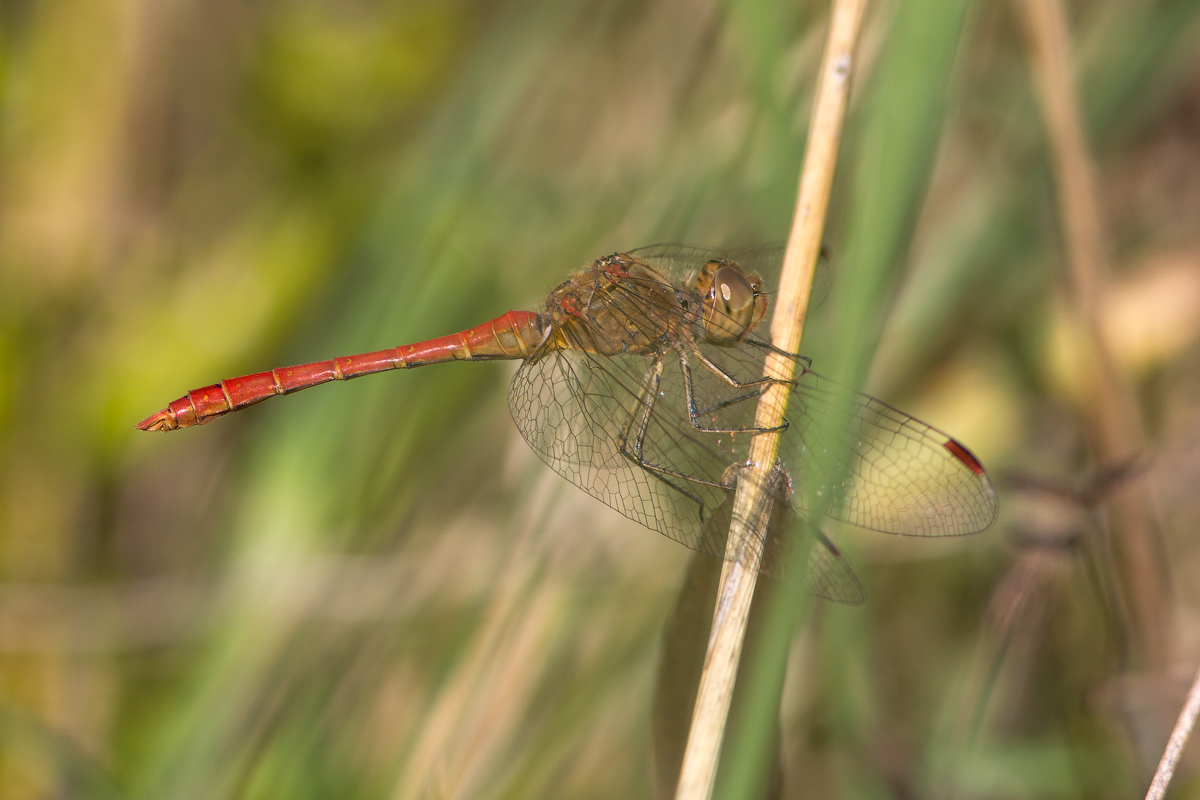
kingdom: Animalia
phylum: Arthropoda
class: Insecta
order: Odonata
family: Libellulidae
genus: Sympetrum
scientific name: Sympetrum meridionale
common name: Southern darter
